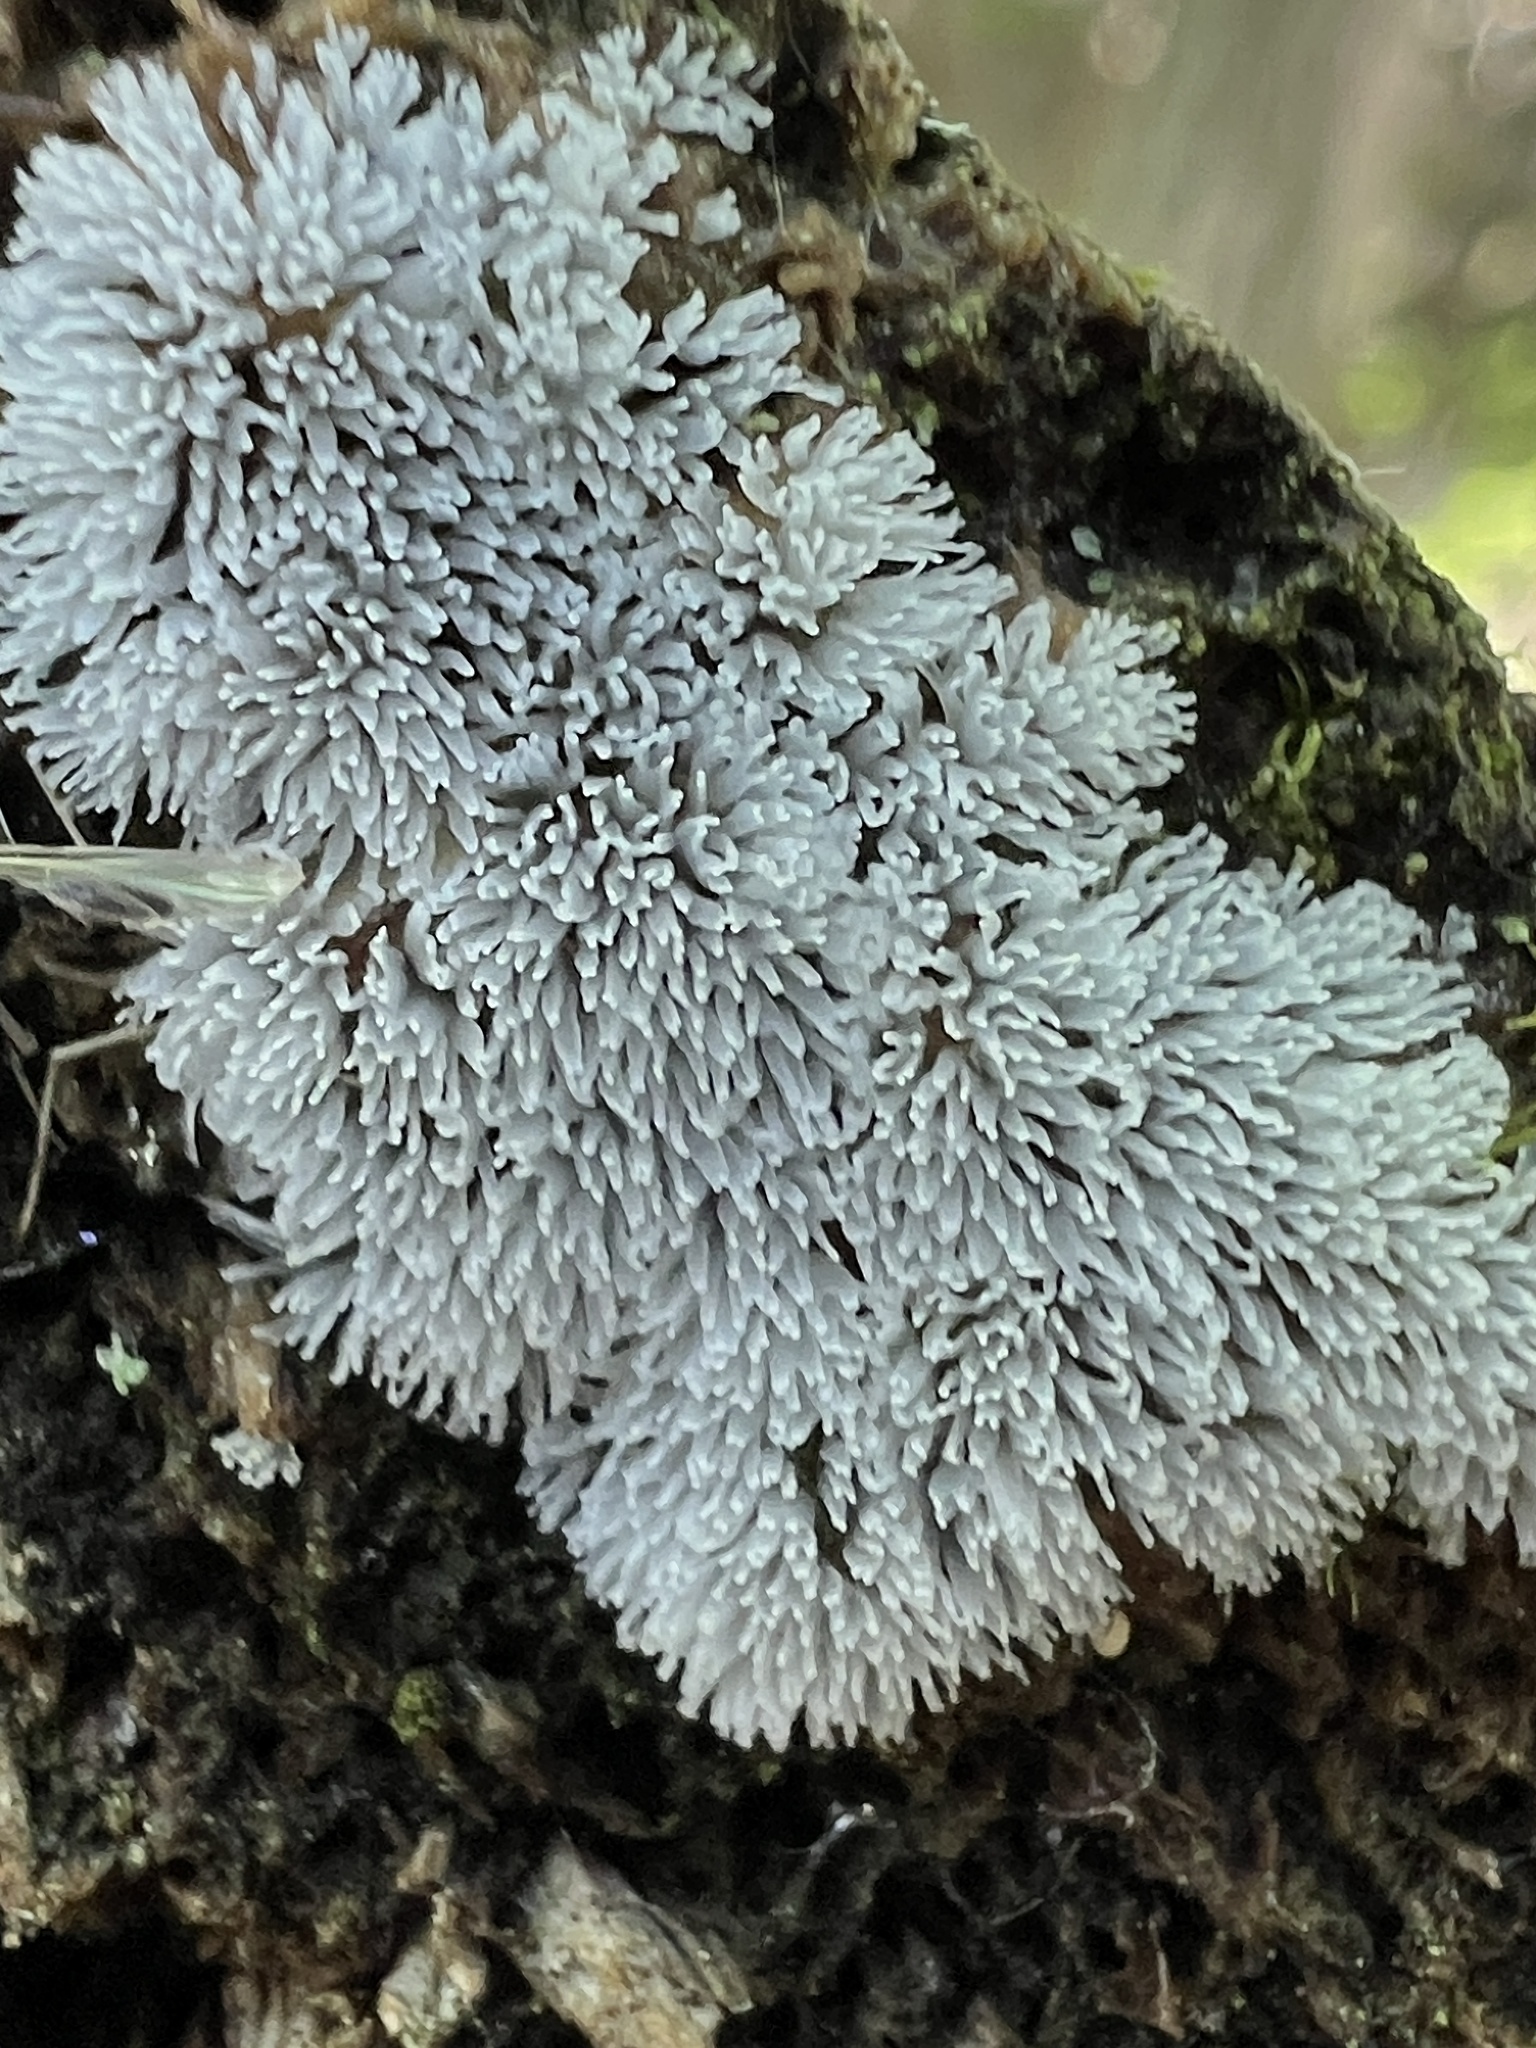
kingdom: Protozoa
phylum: Mycetozoa
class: Protosteliomycetes
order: Ceratiomyxales
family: Ceratiomyxaceae
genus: Ceratiomyxa
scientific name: Ceratiomyxa fruticulosa
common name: Honeycomb coral slime mold
